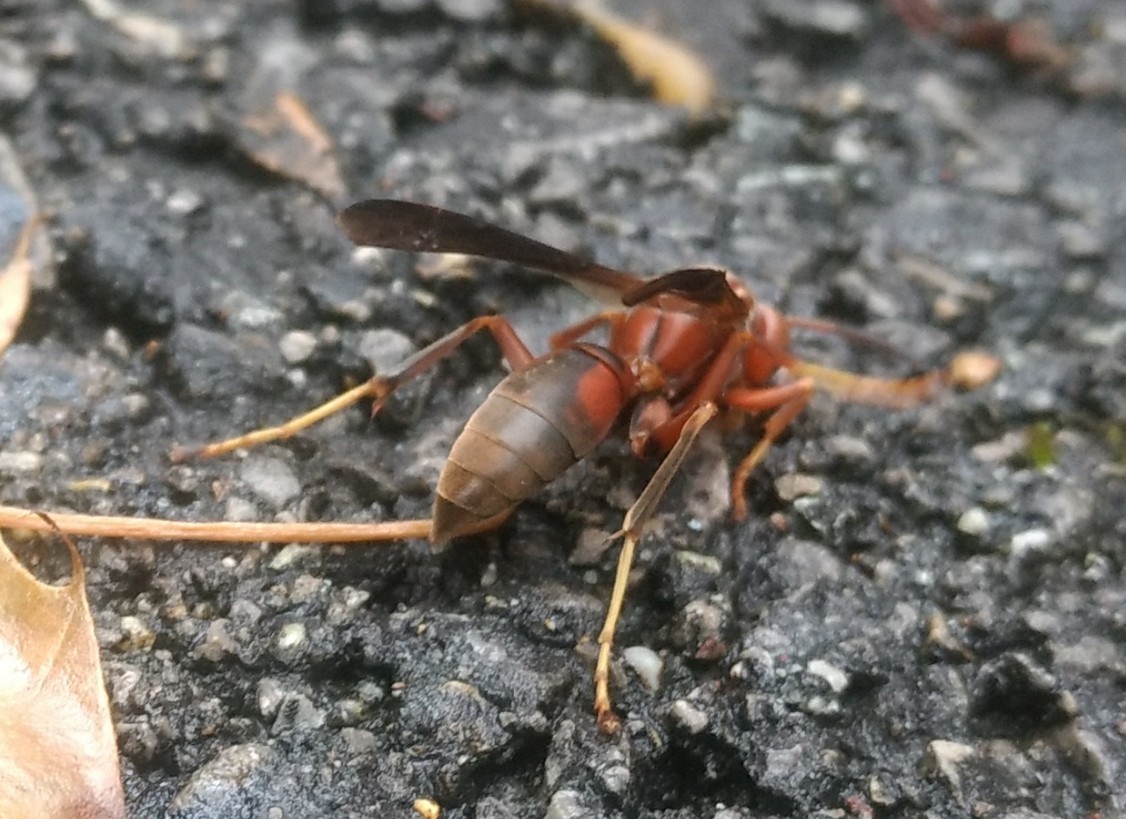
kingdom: Animalia
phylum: Arthropoda
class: Insecta
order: Hymenoptera
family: Eumenidae
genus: Polistes
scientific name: Polistes metricus
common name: Metric paper wasp
